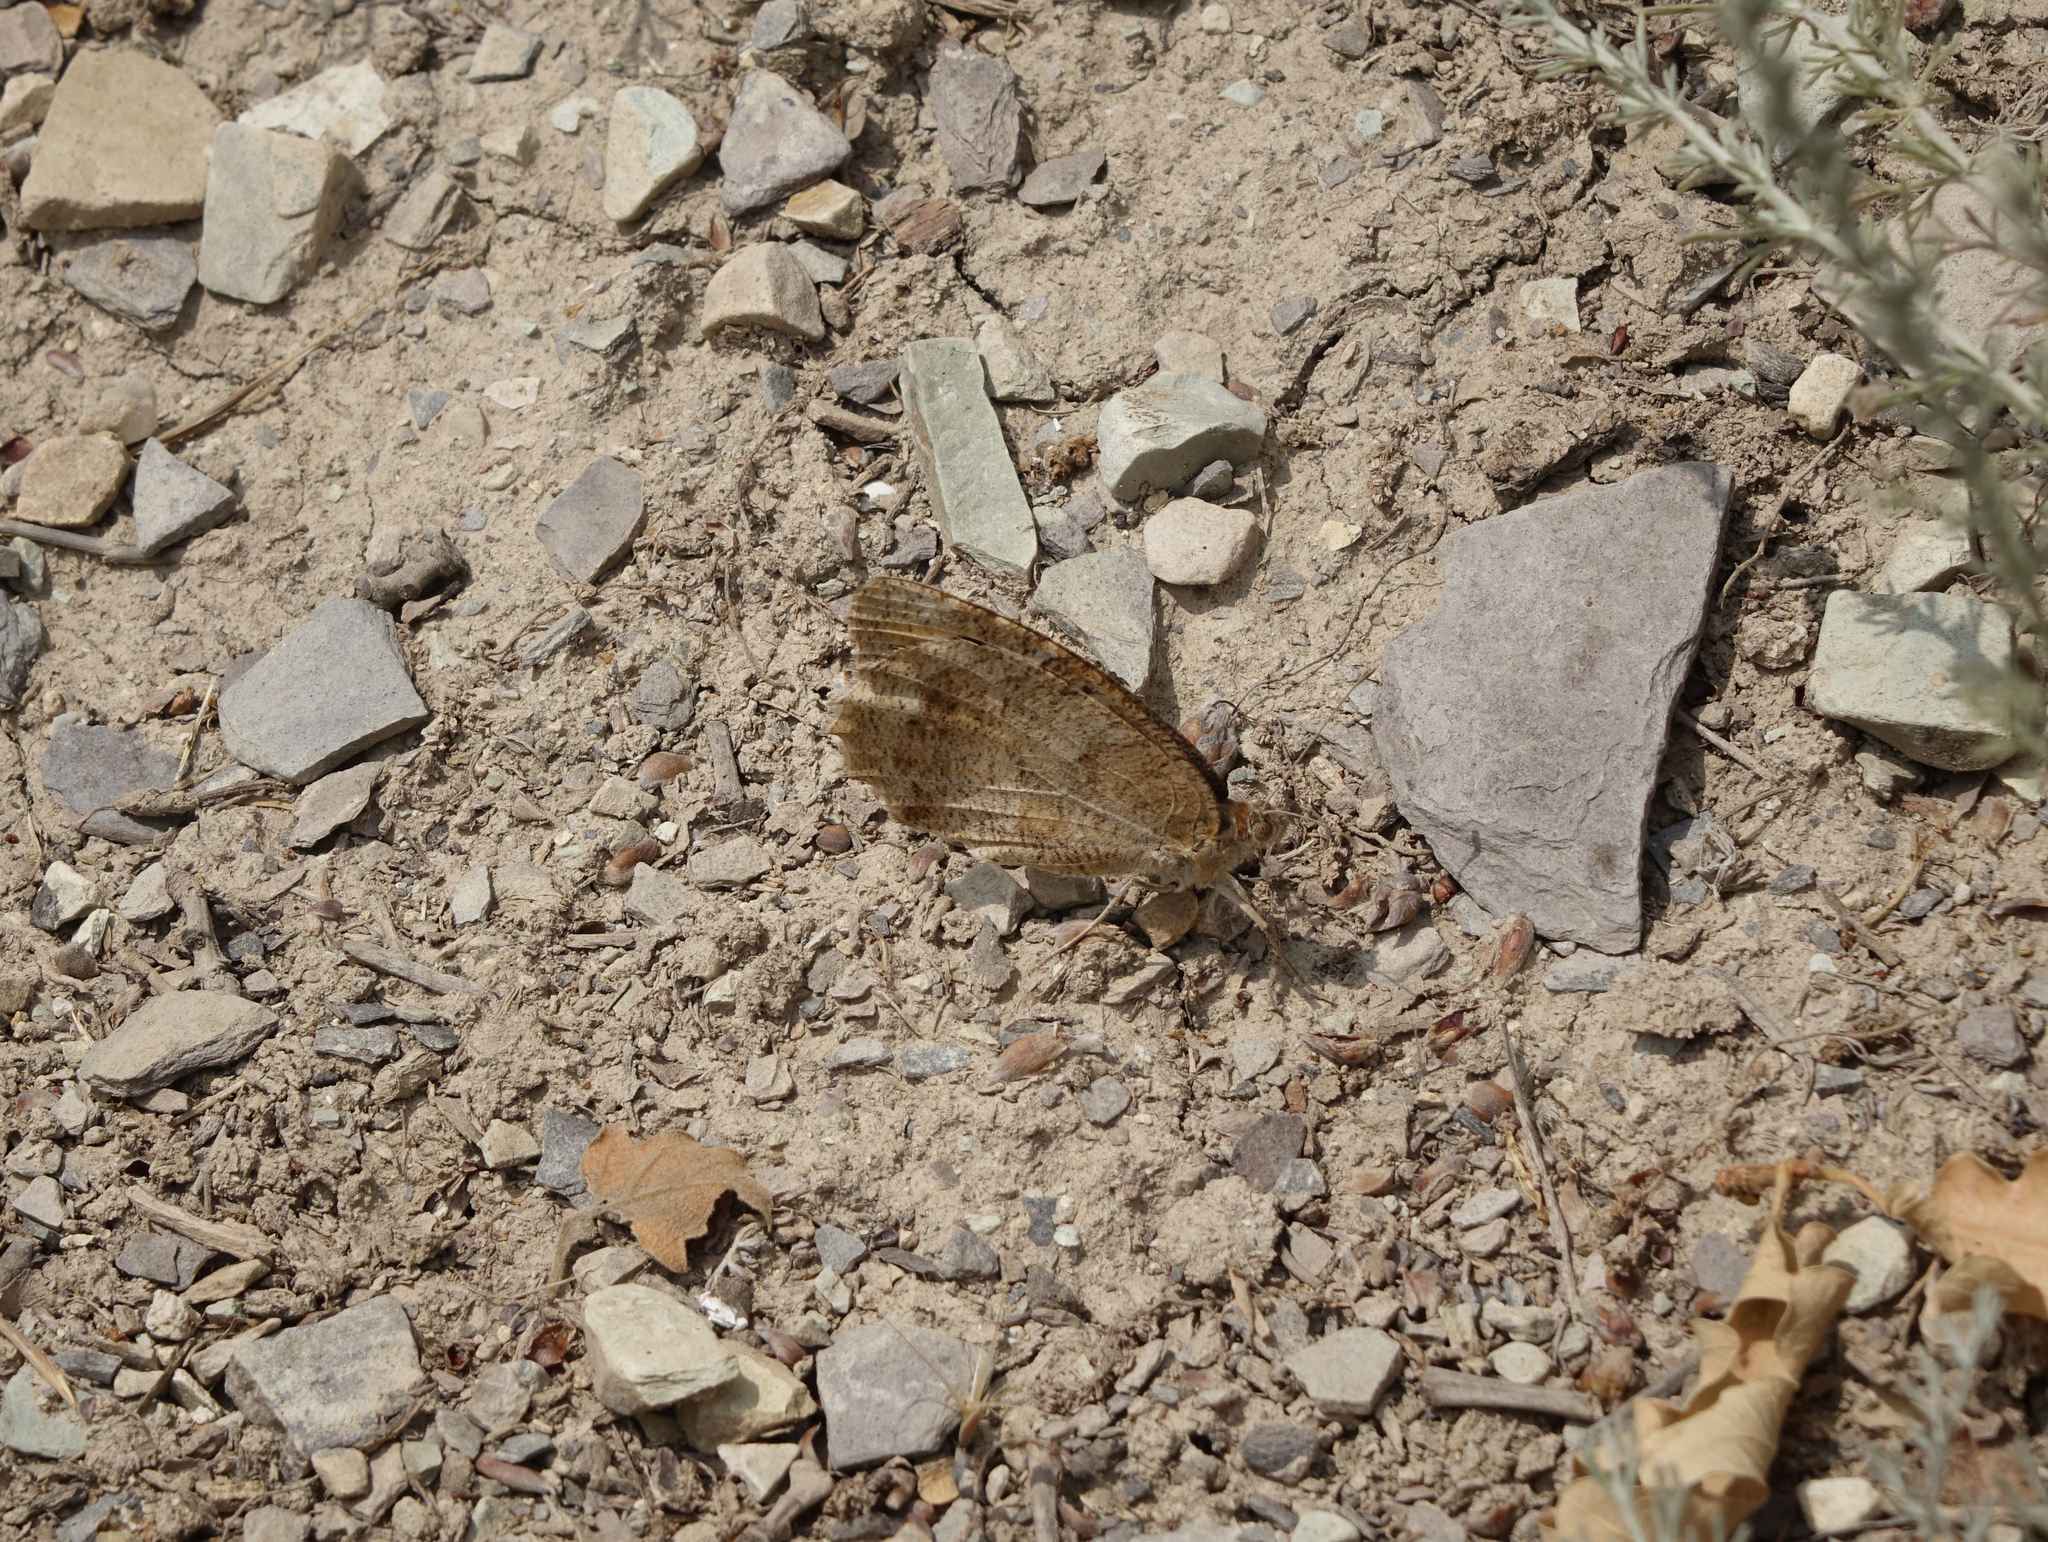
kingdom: Animalia
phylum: Arthropoda
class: Insecta
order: Lepidoptera
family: Nymphalidae
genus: Pseudochazara
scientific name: Pseudochazara pelopea
